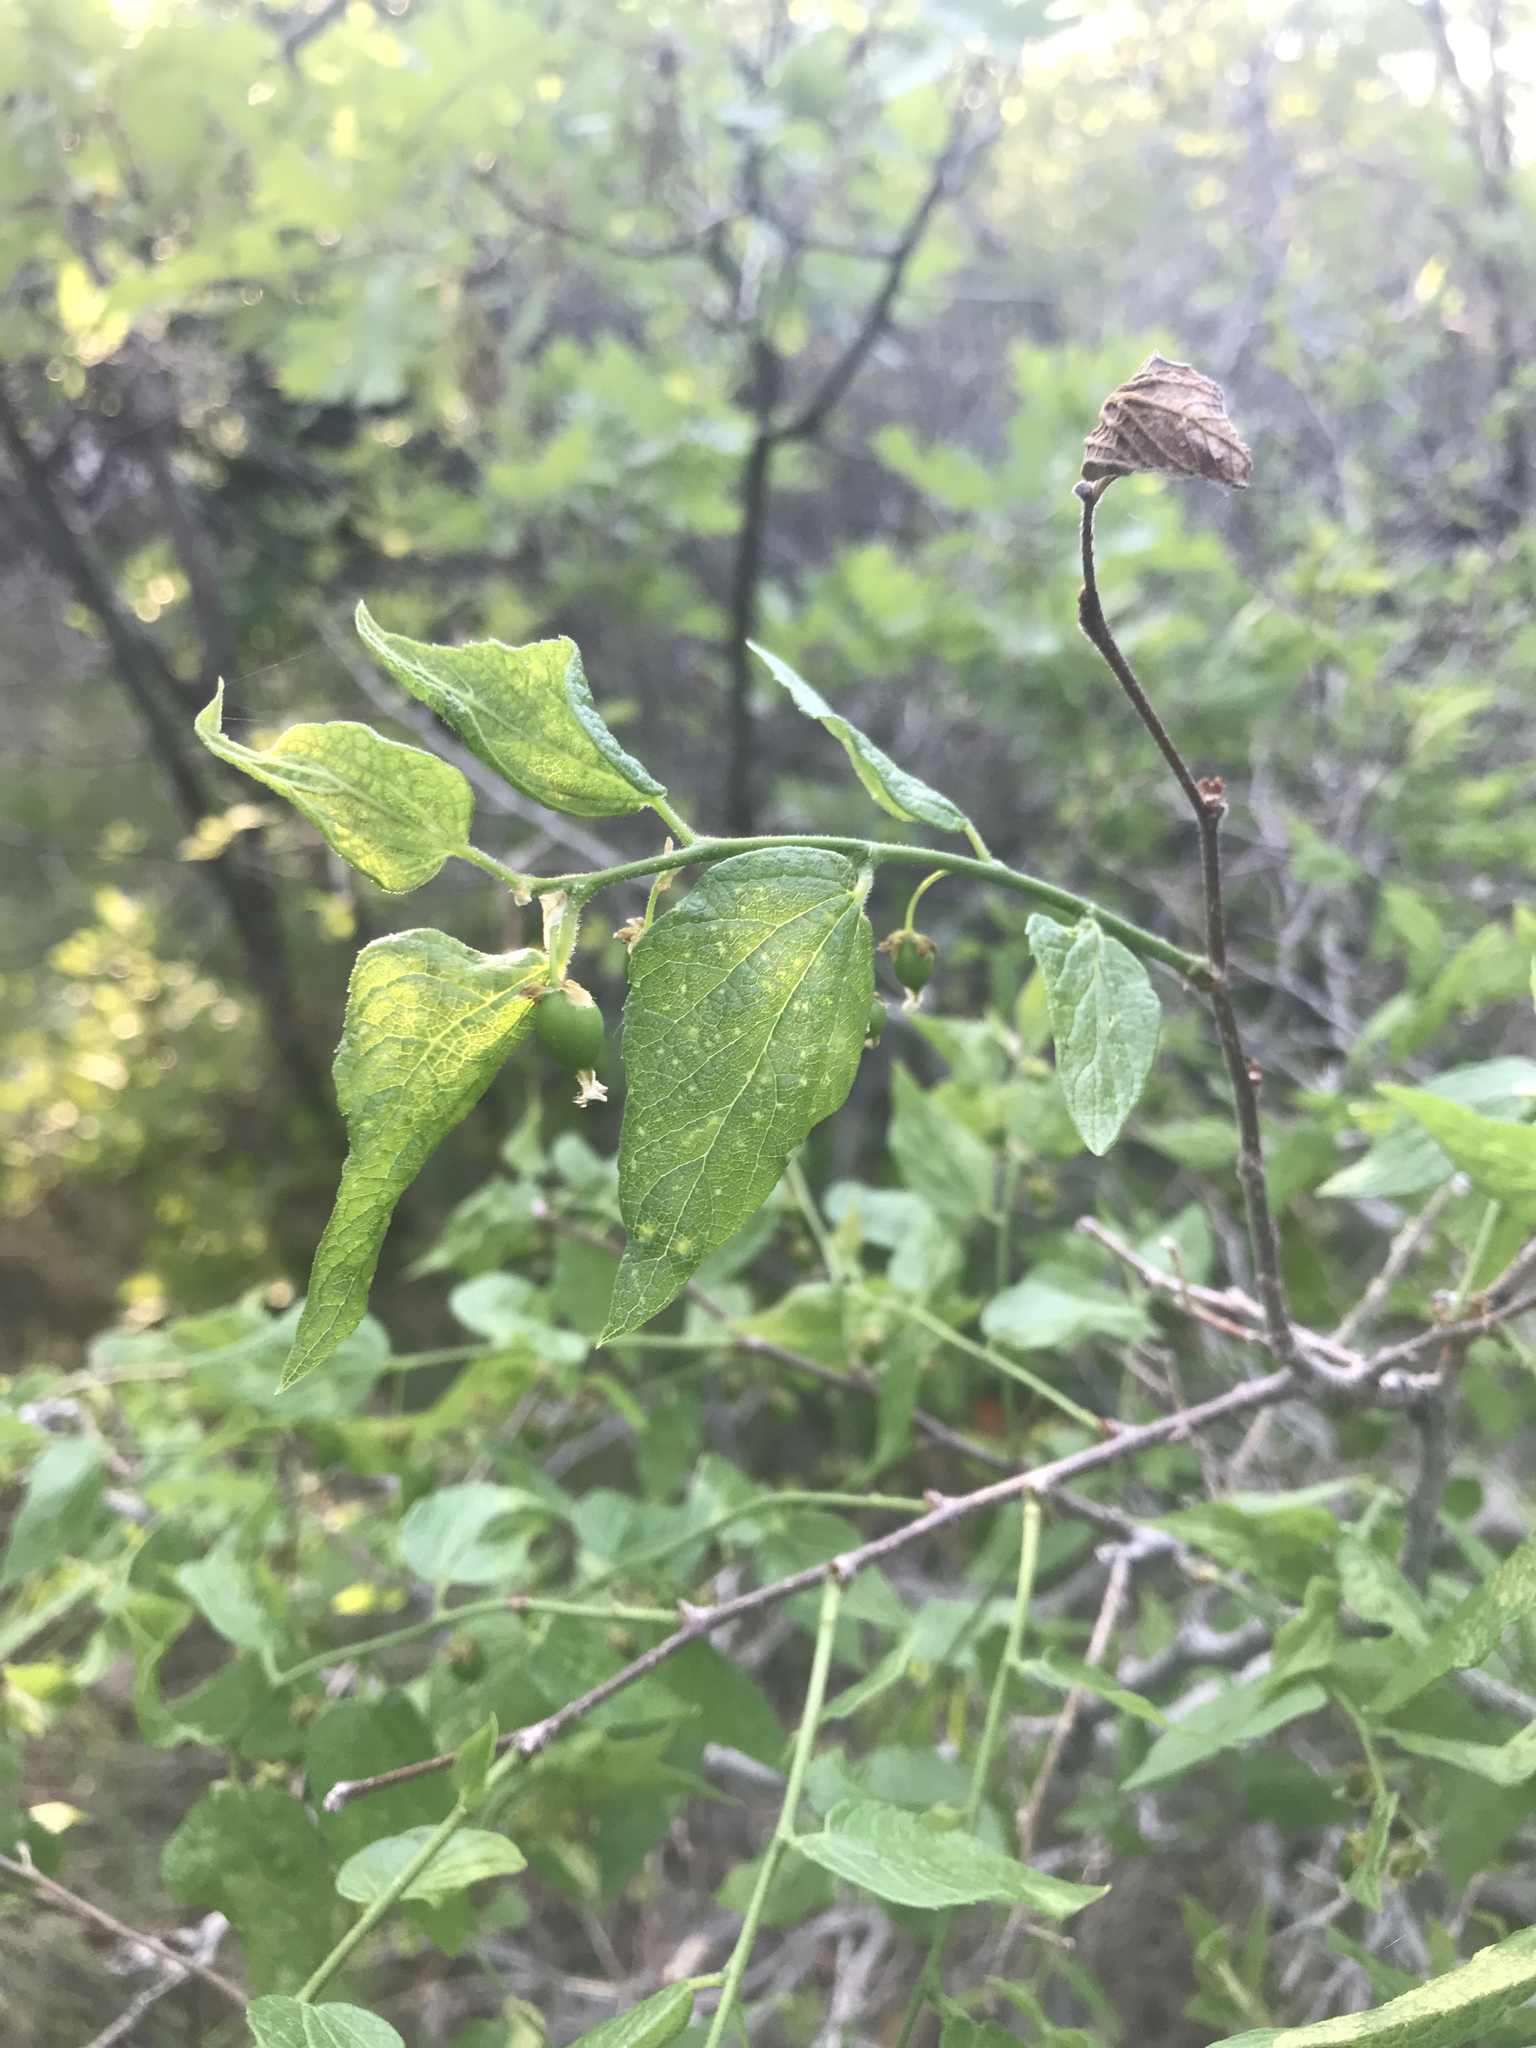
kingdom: Plantae
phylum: Tracheophyta
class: Magnoliopsida
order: Rosales
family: Cannabaceae
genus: Celtis
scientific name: Celtis reticulata
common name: Netleaf hackberry
